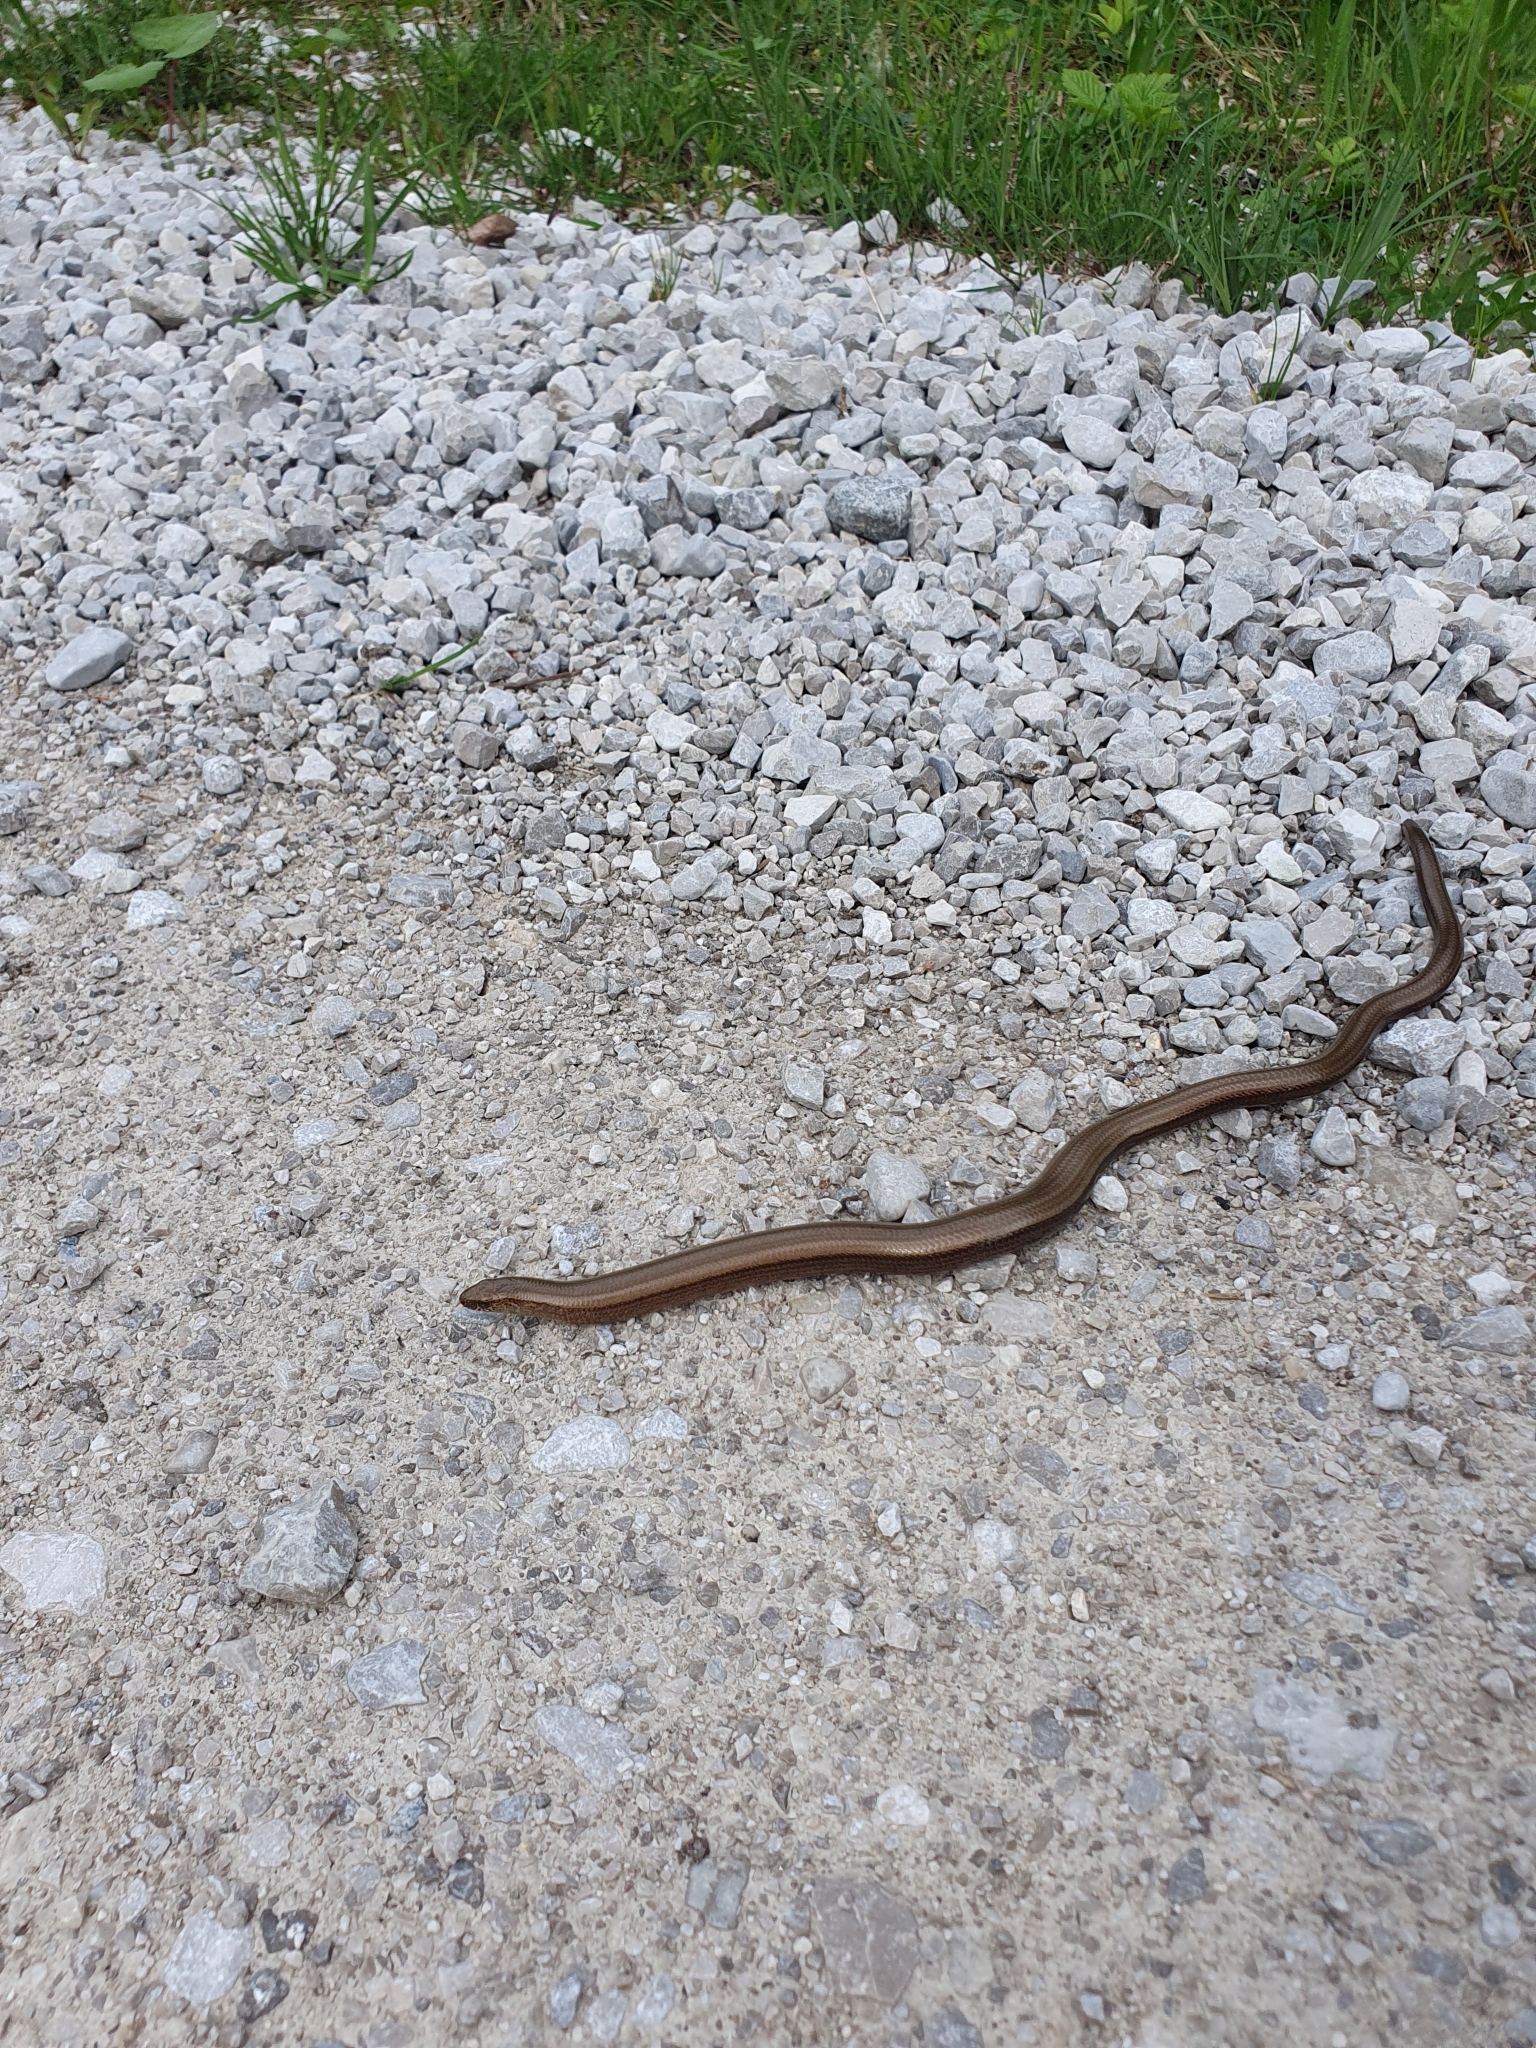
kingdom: Animalia
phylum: Chordata
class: Squamata
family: Anguidae
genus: Anguis
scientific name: Anguis fragilis
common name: Slow worm
